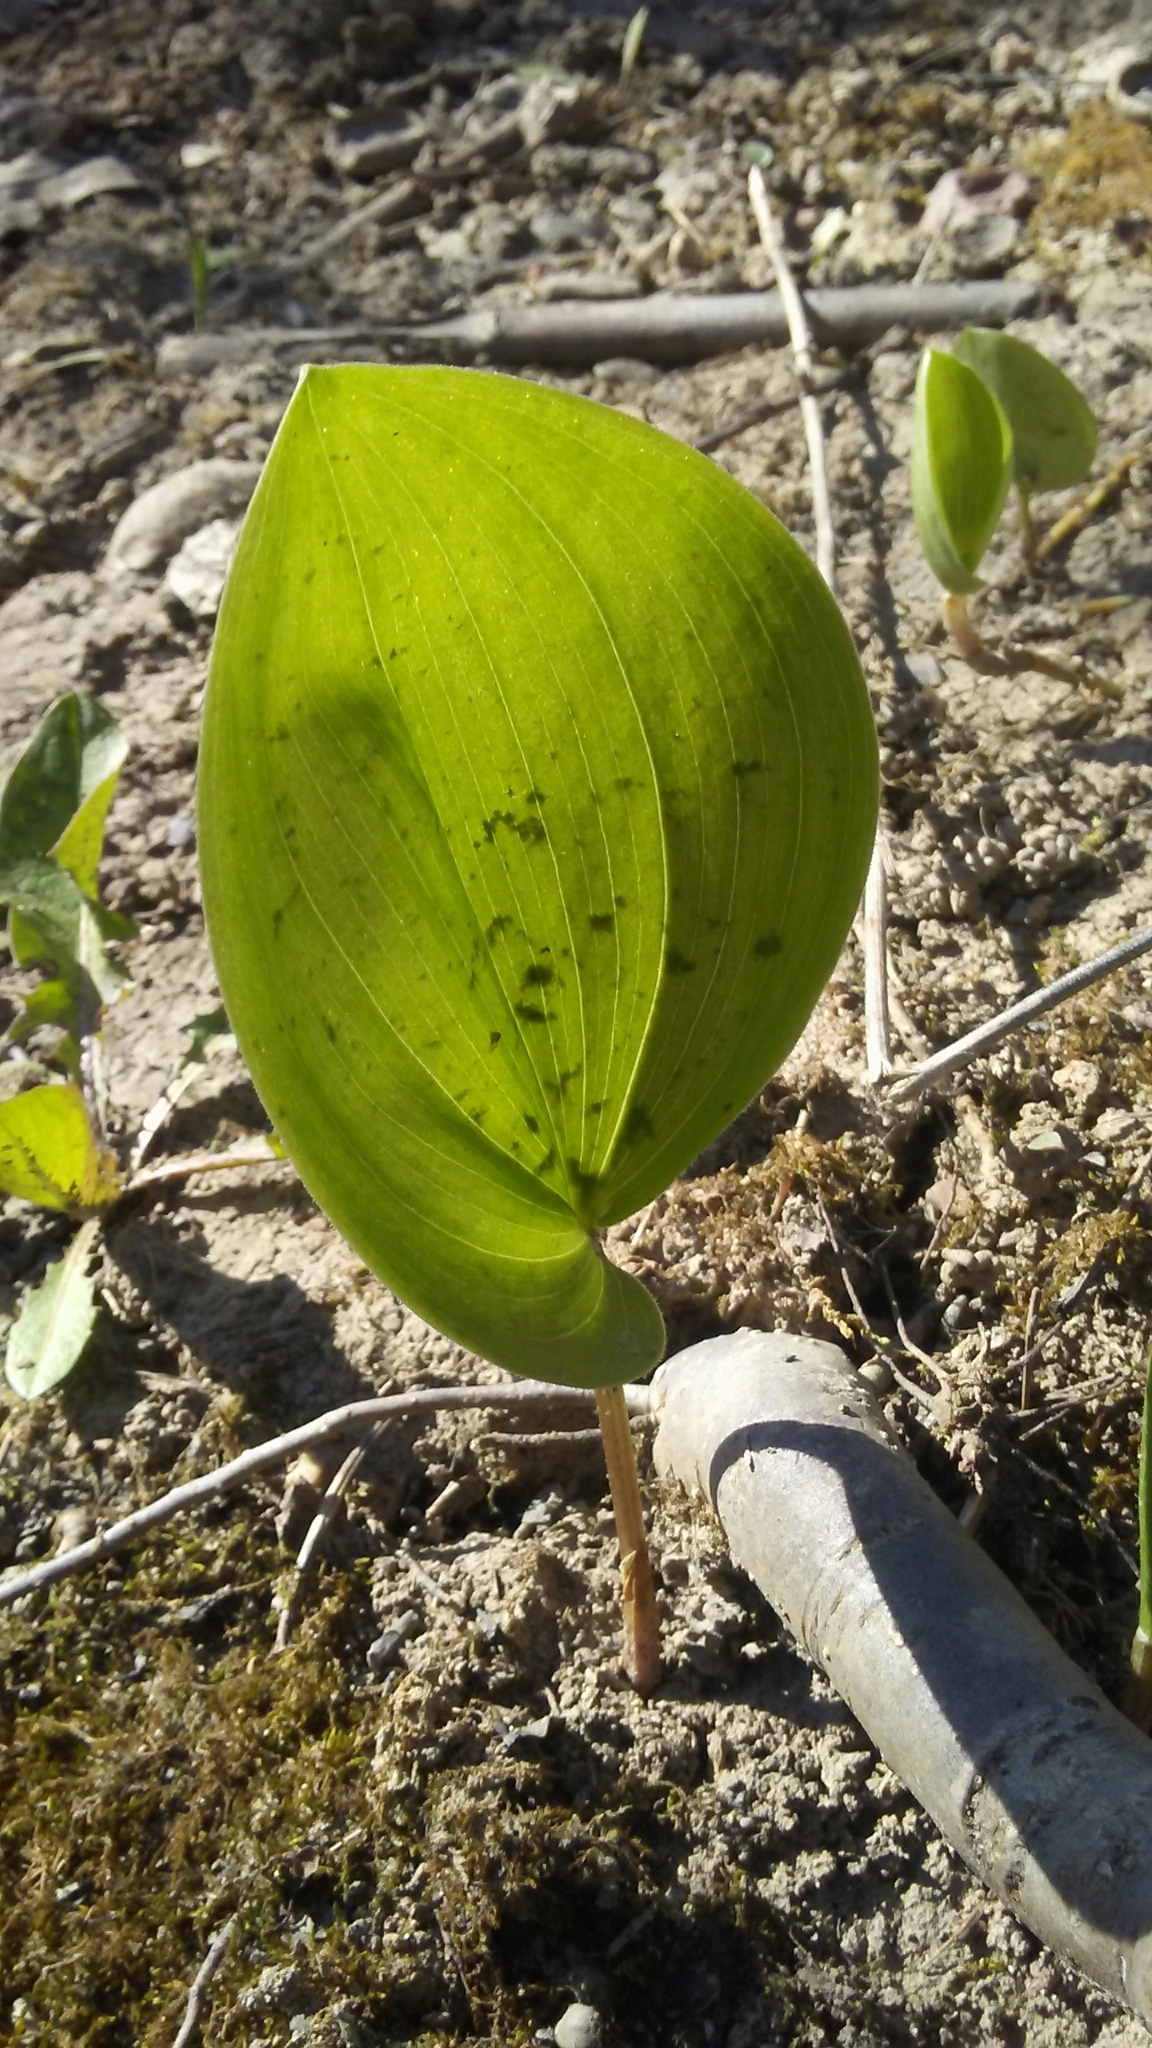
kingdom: Plantae
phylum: Tracheophyta
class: Liliopsida
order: Asparagales
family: Asparagaceae
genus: Maianthemum
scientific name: Maianthemum canadense
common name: False lily-of-the-valley
